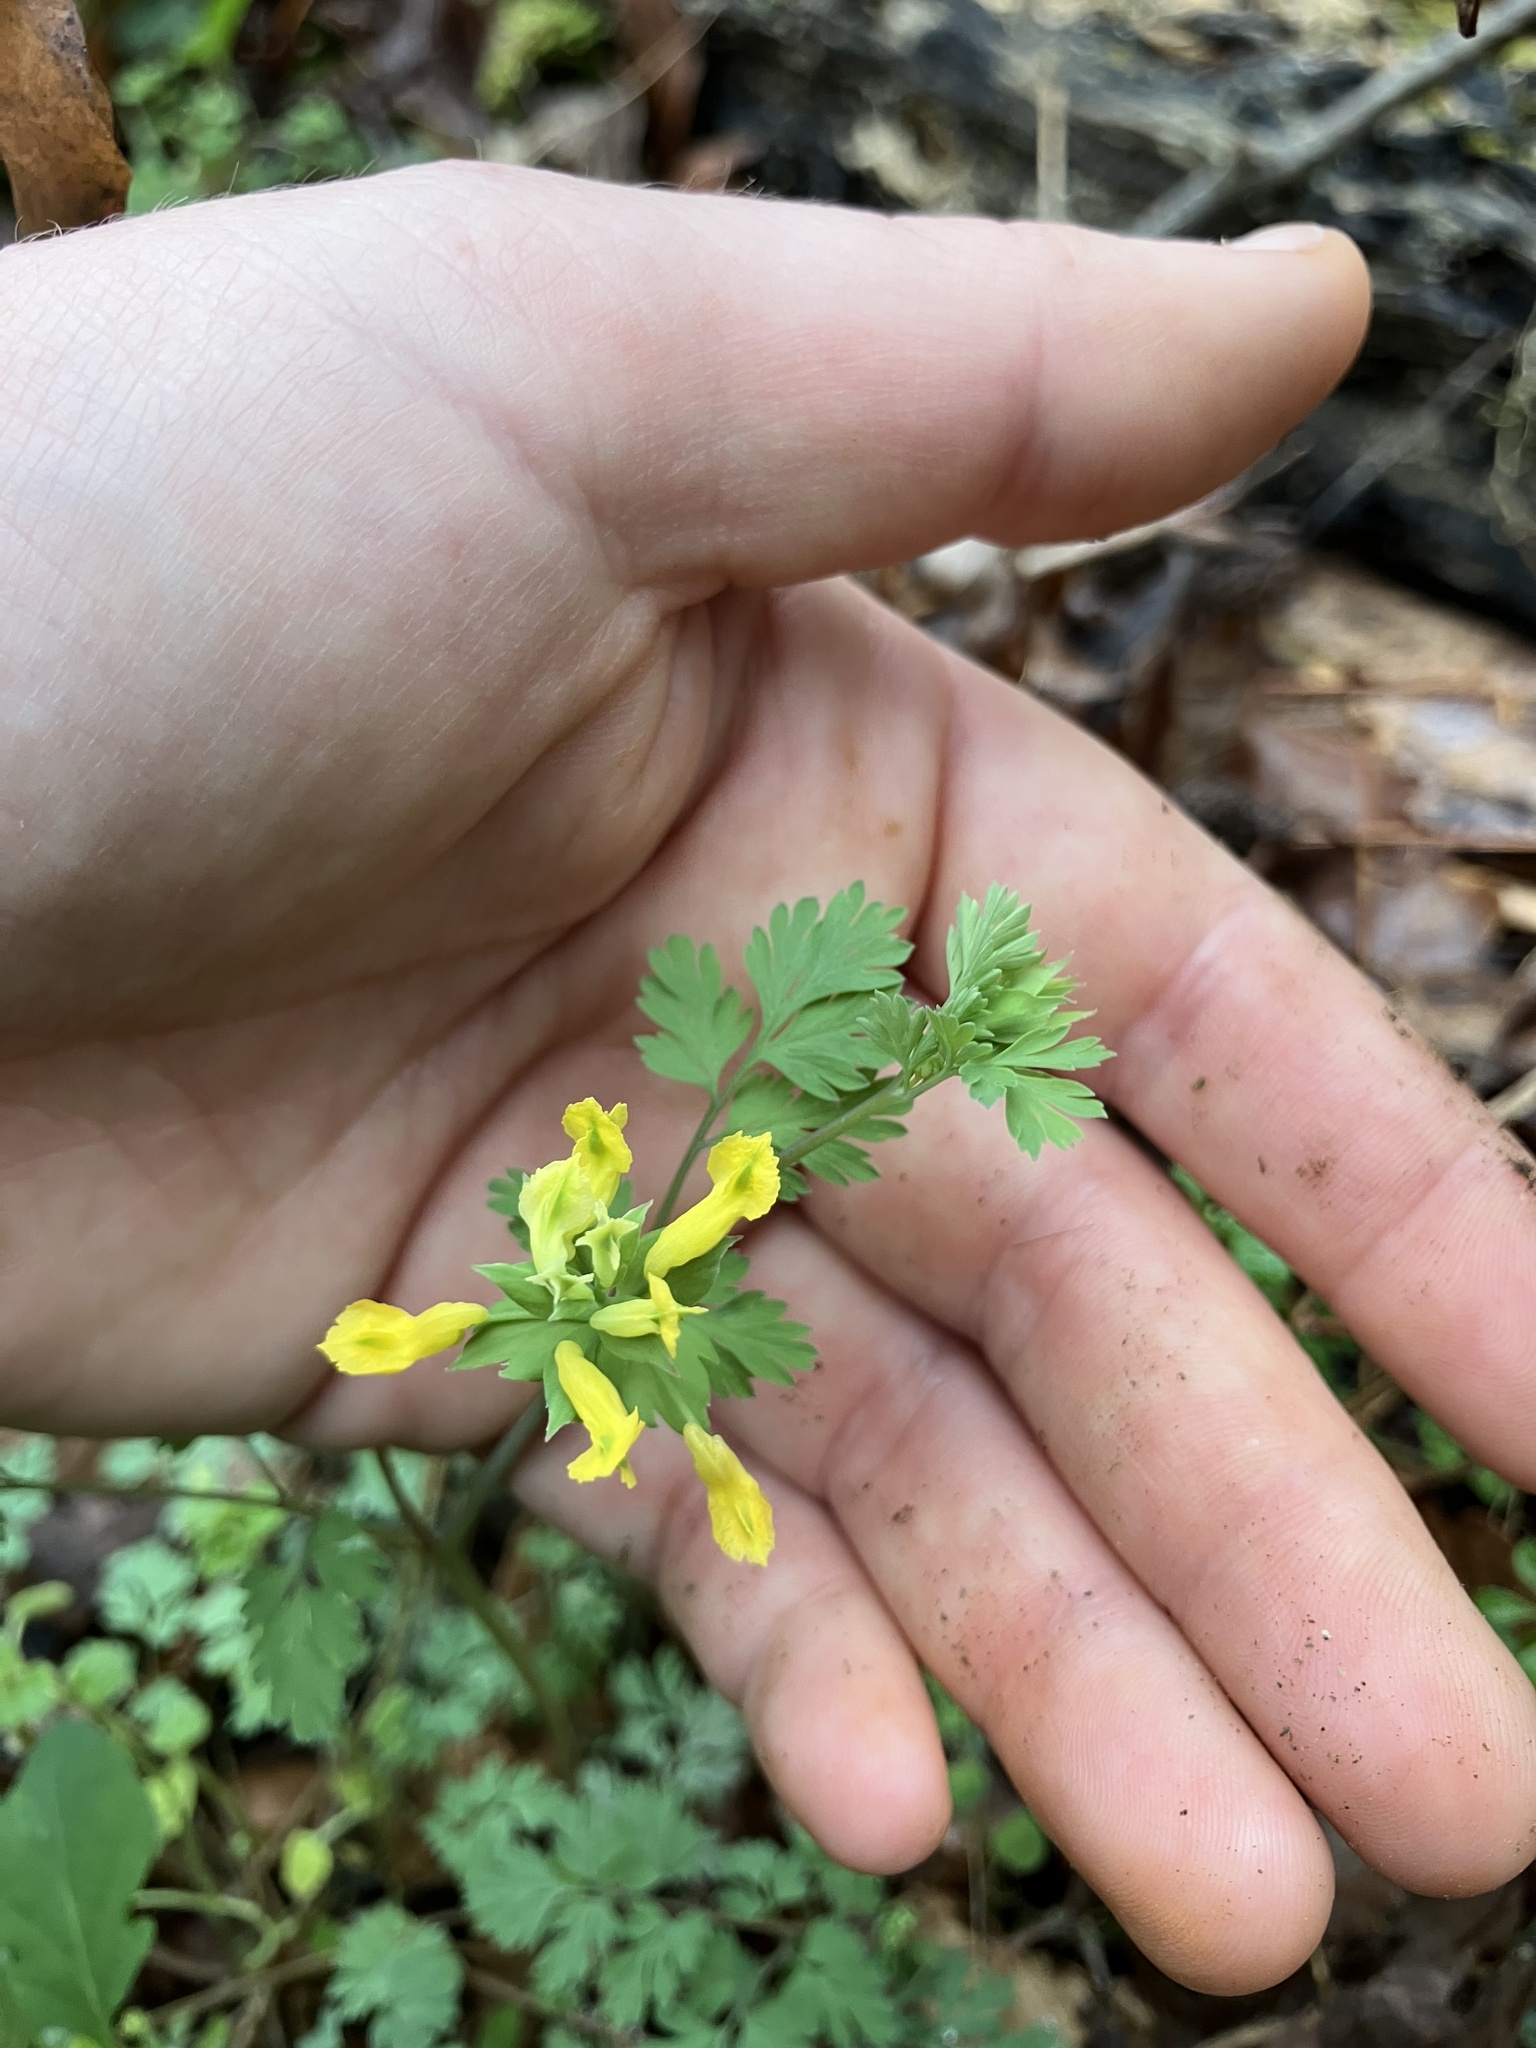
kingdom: Plantae
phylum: Tracheophyta
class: Magnoliopsida
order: Ranunculales
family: Papaveraceae
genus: Corydalis
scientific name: Corydalis flavula
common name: Yellow corydalis
